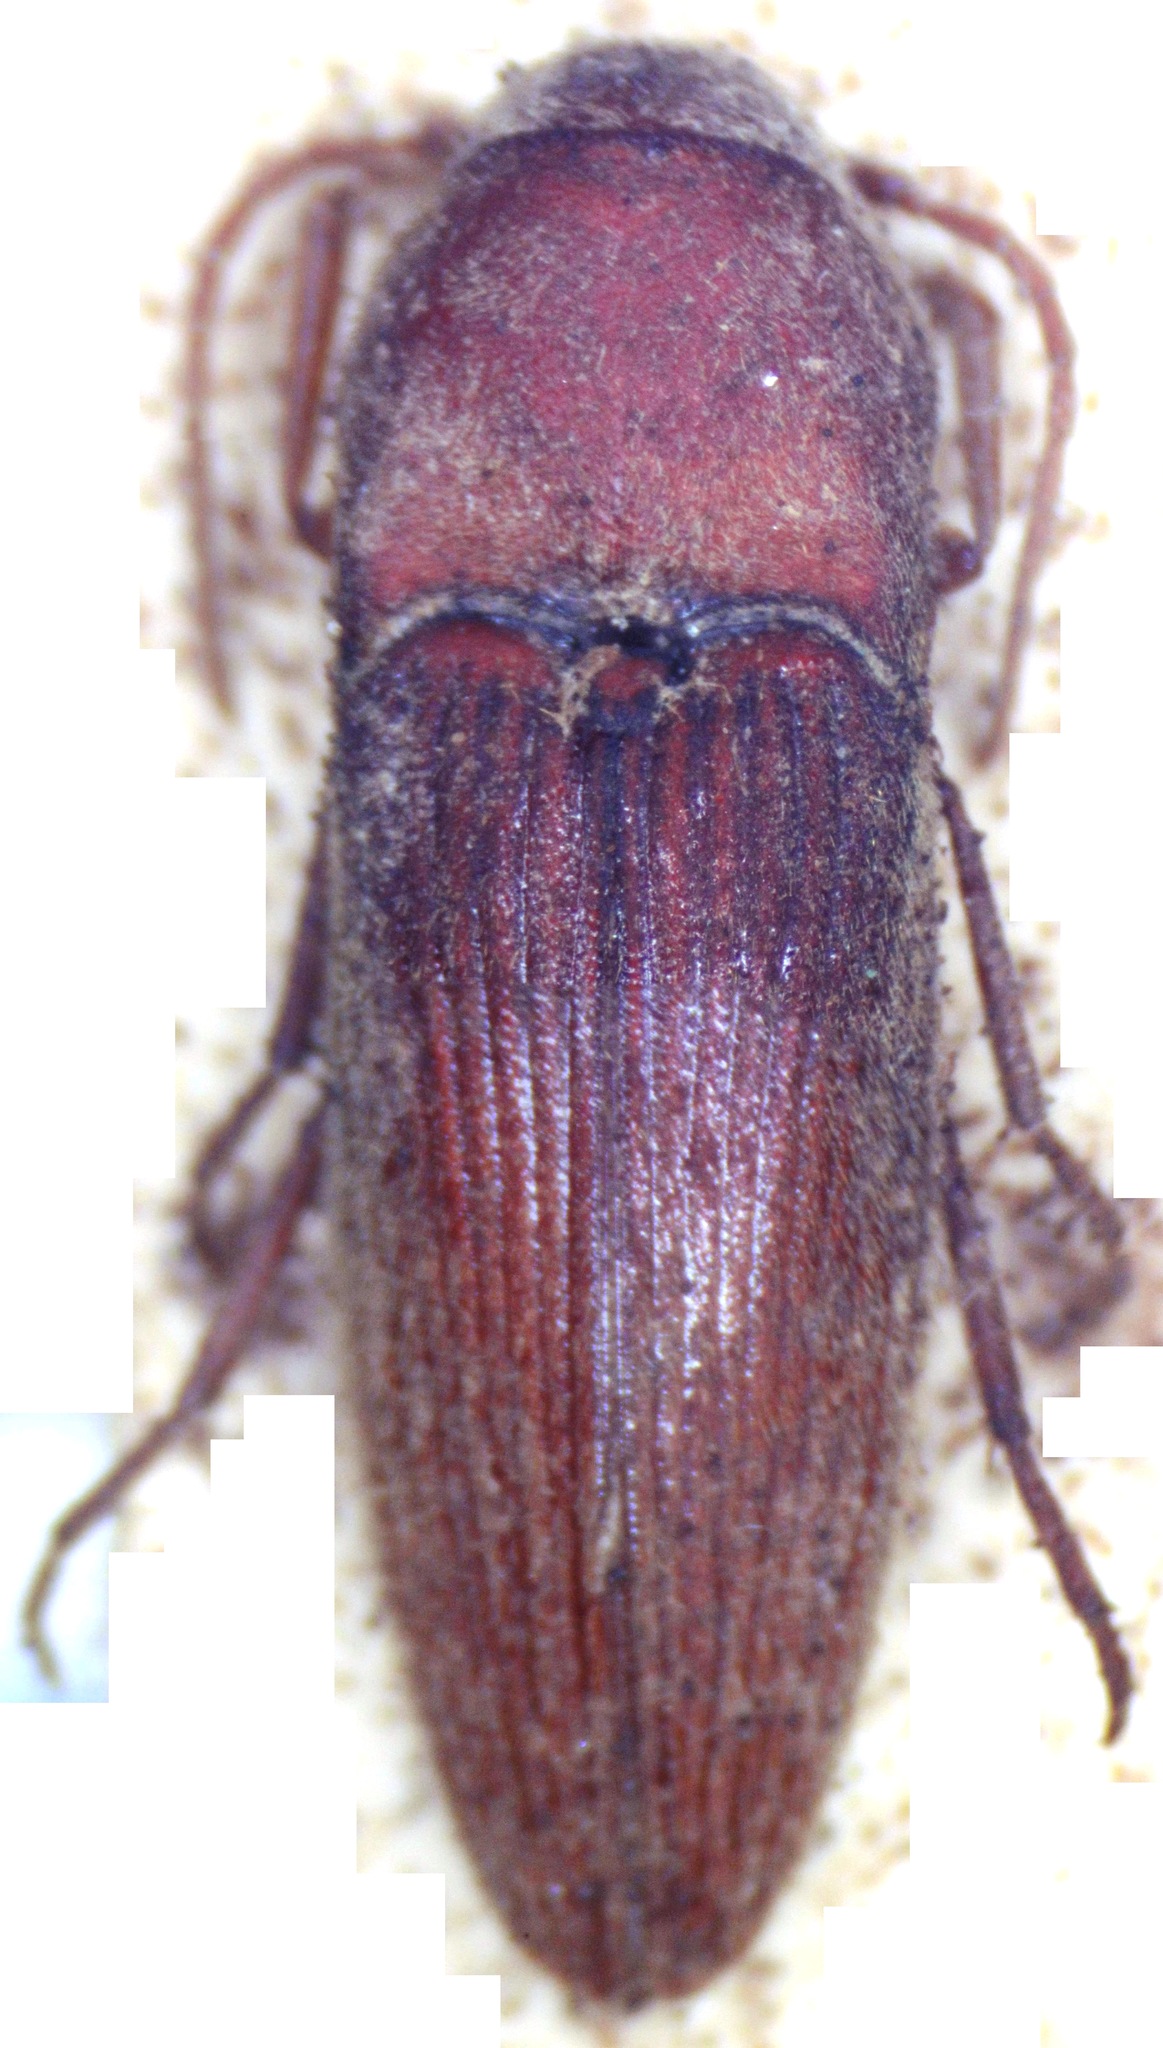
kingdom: Animalia
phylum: Arthropoda
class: Insecta
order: Coleoptera
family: Eucnemidae
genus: Silveriola
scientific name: Silveriola
